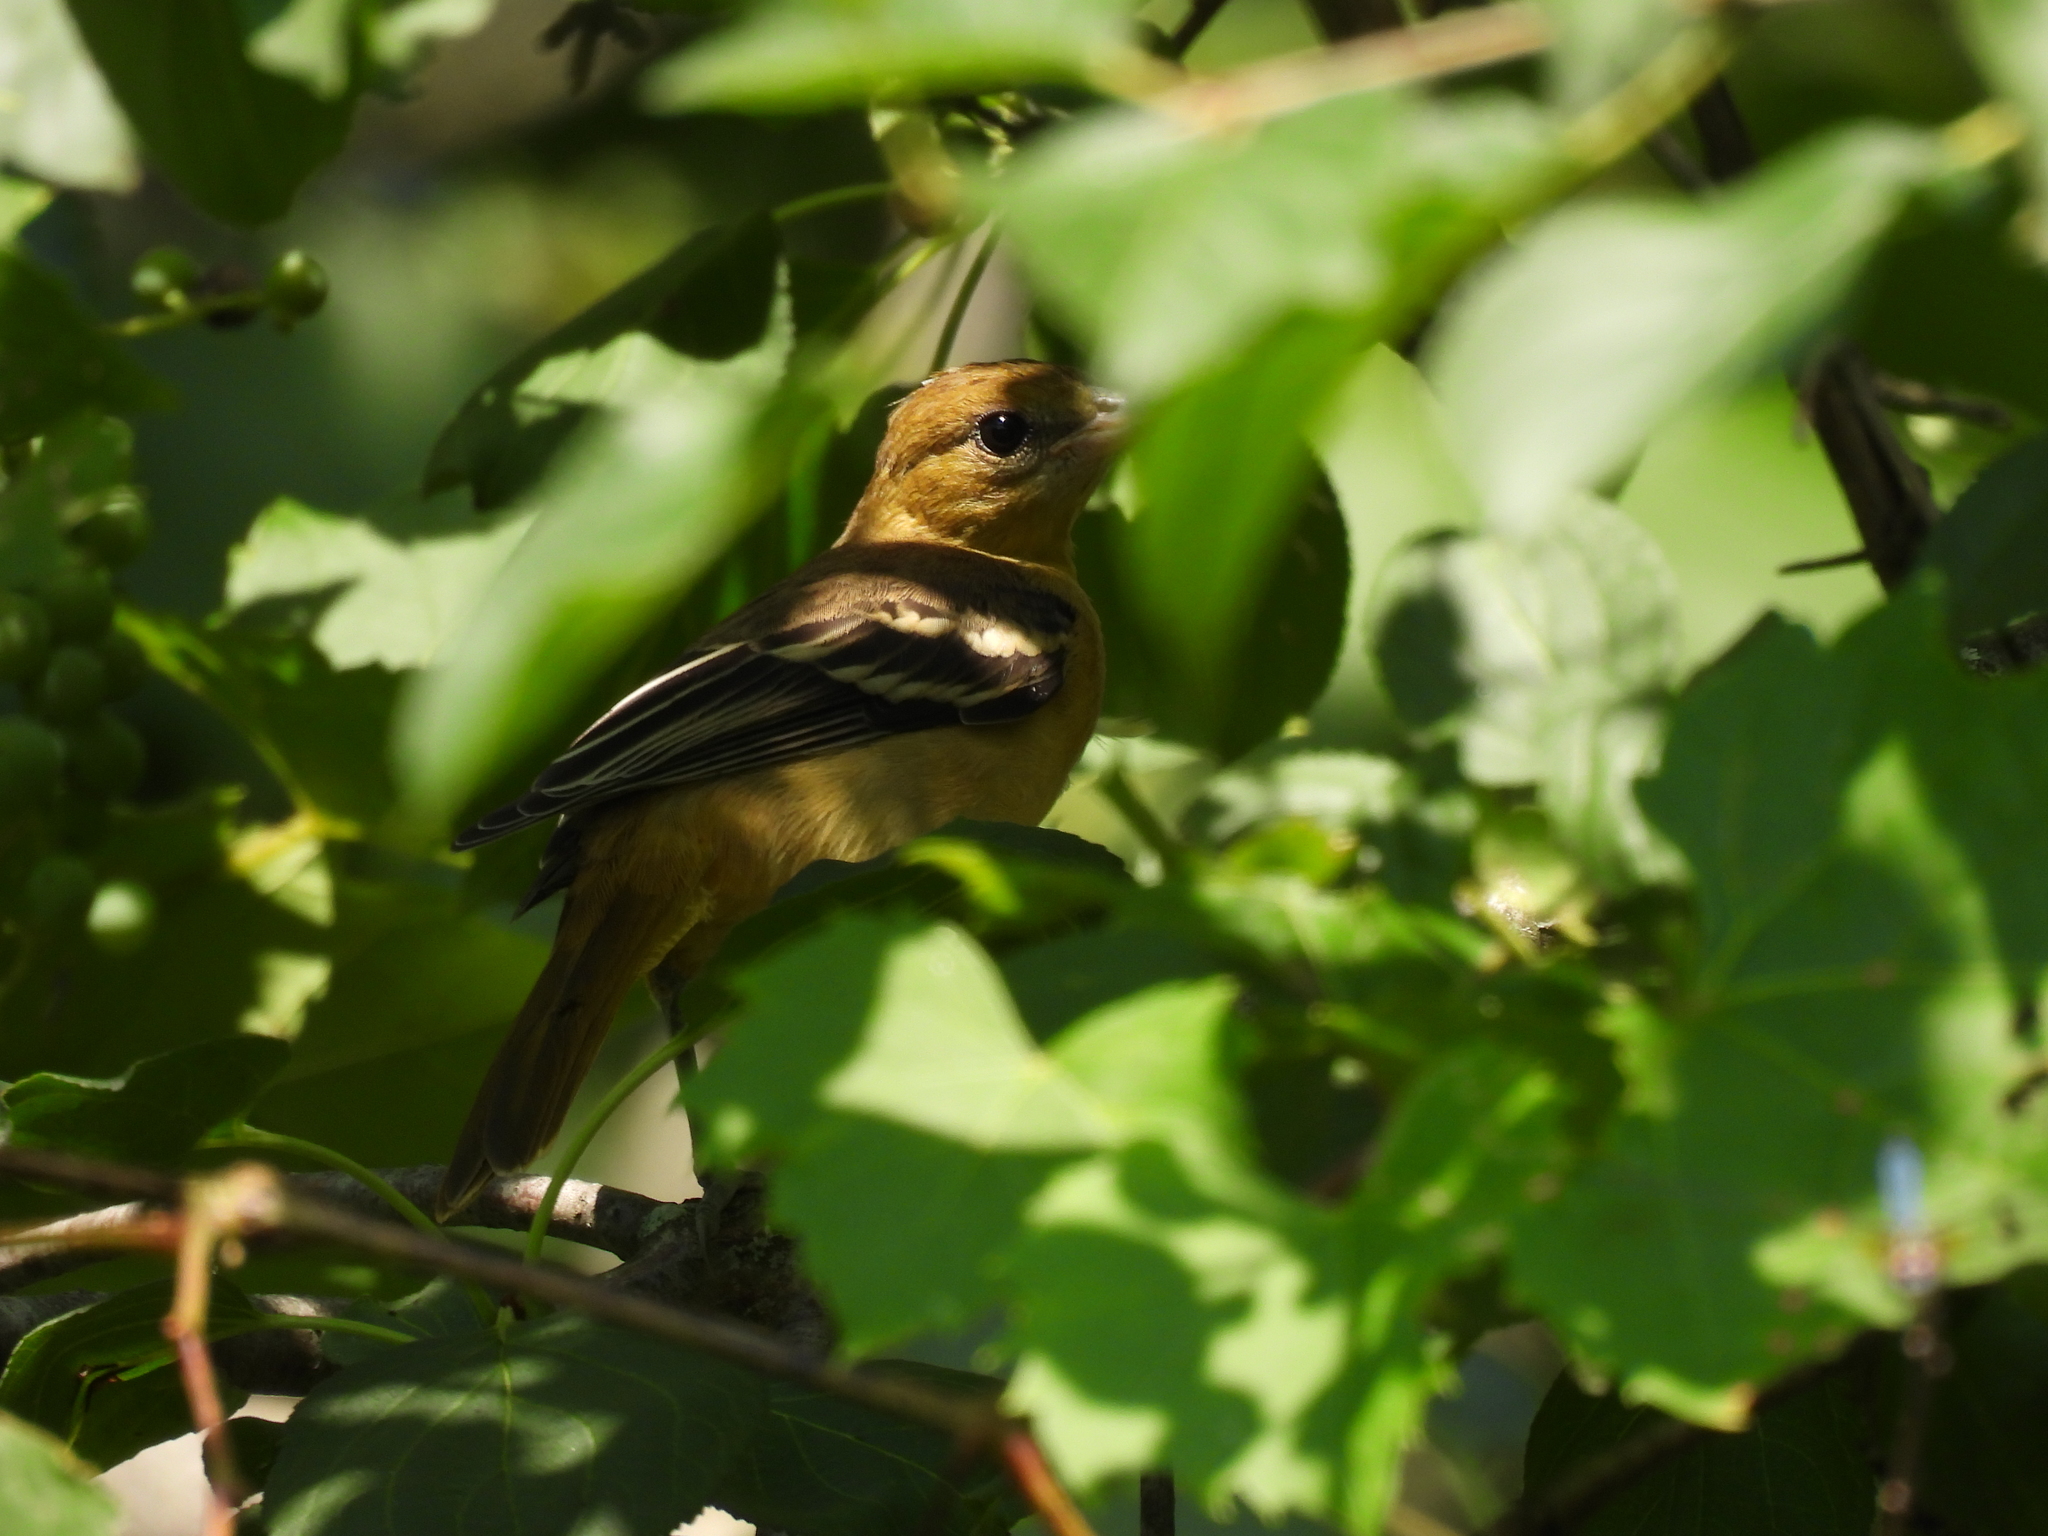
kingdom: Animalia
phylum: Chordata
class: Aves
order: Passeriformes
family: Icteridae
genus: Icterus
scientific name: Icterus galbula
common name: Baltimore oriole
